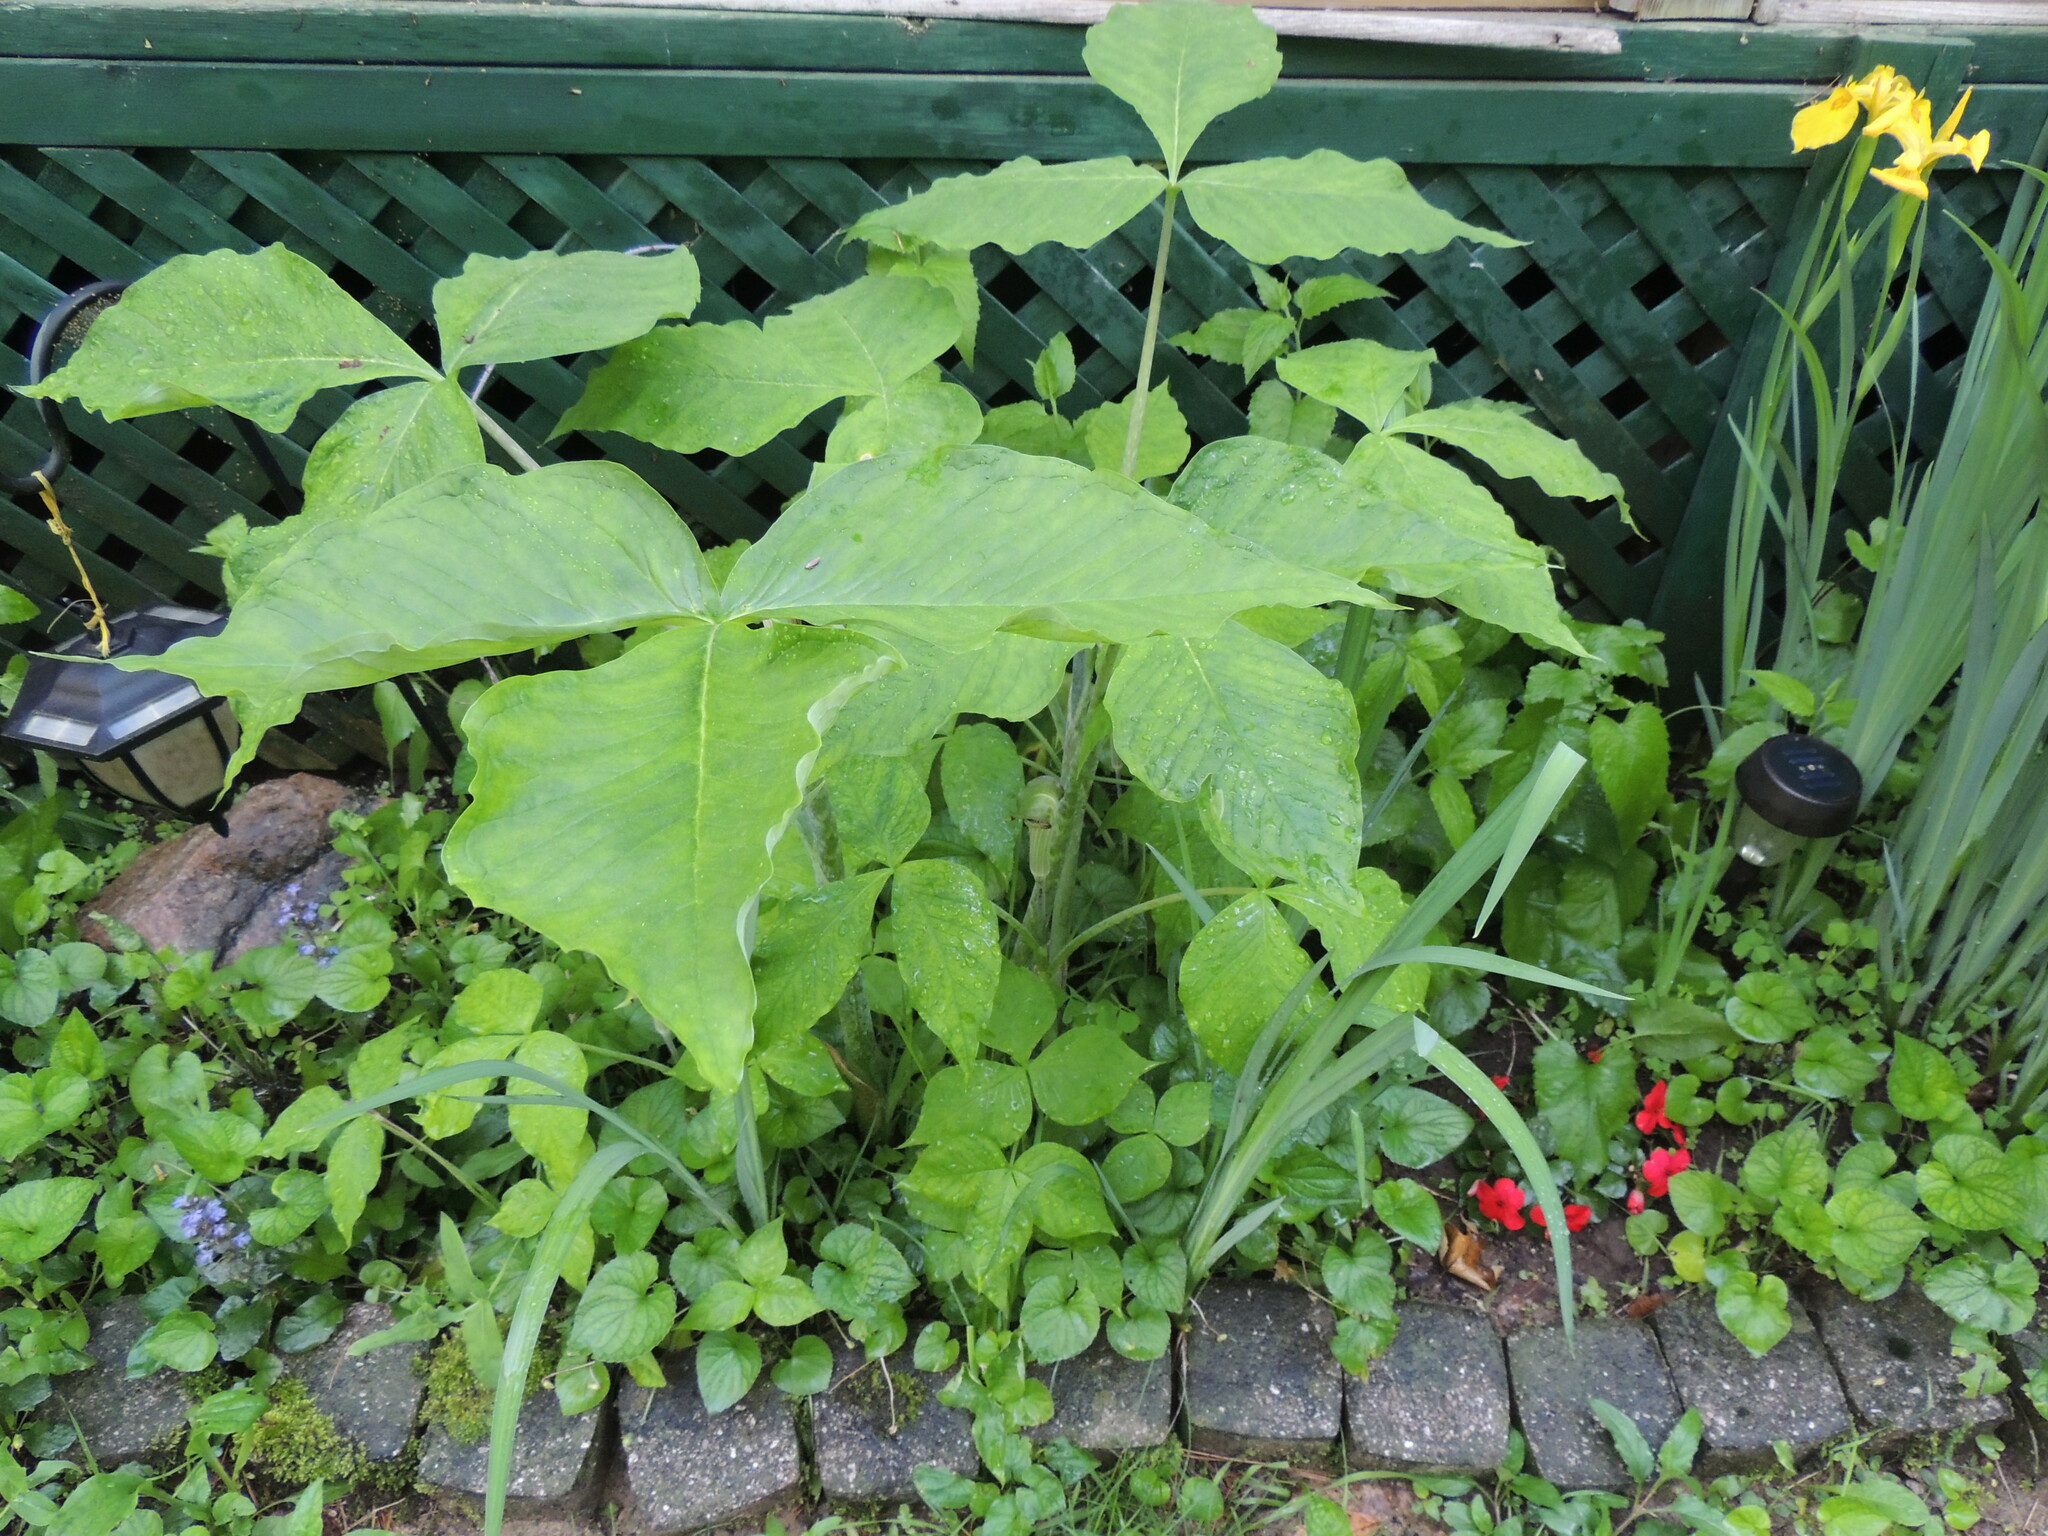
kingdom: Plantae
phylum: Tracheophyta
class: Liliopsida
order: Alismatales
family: Araceae
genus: Arisaema
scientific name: Arisaema triphyllum
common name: Jack-in-the-pulpit
